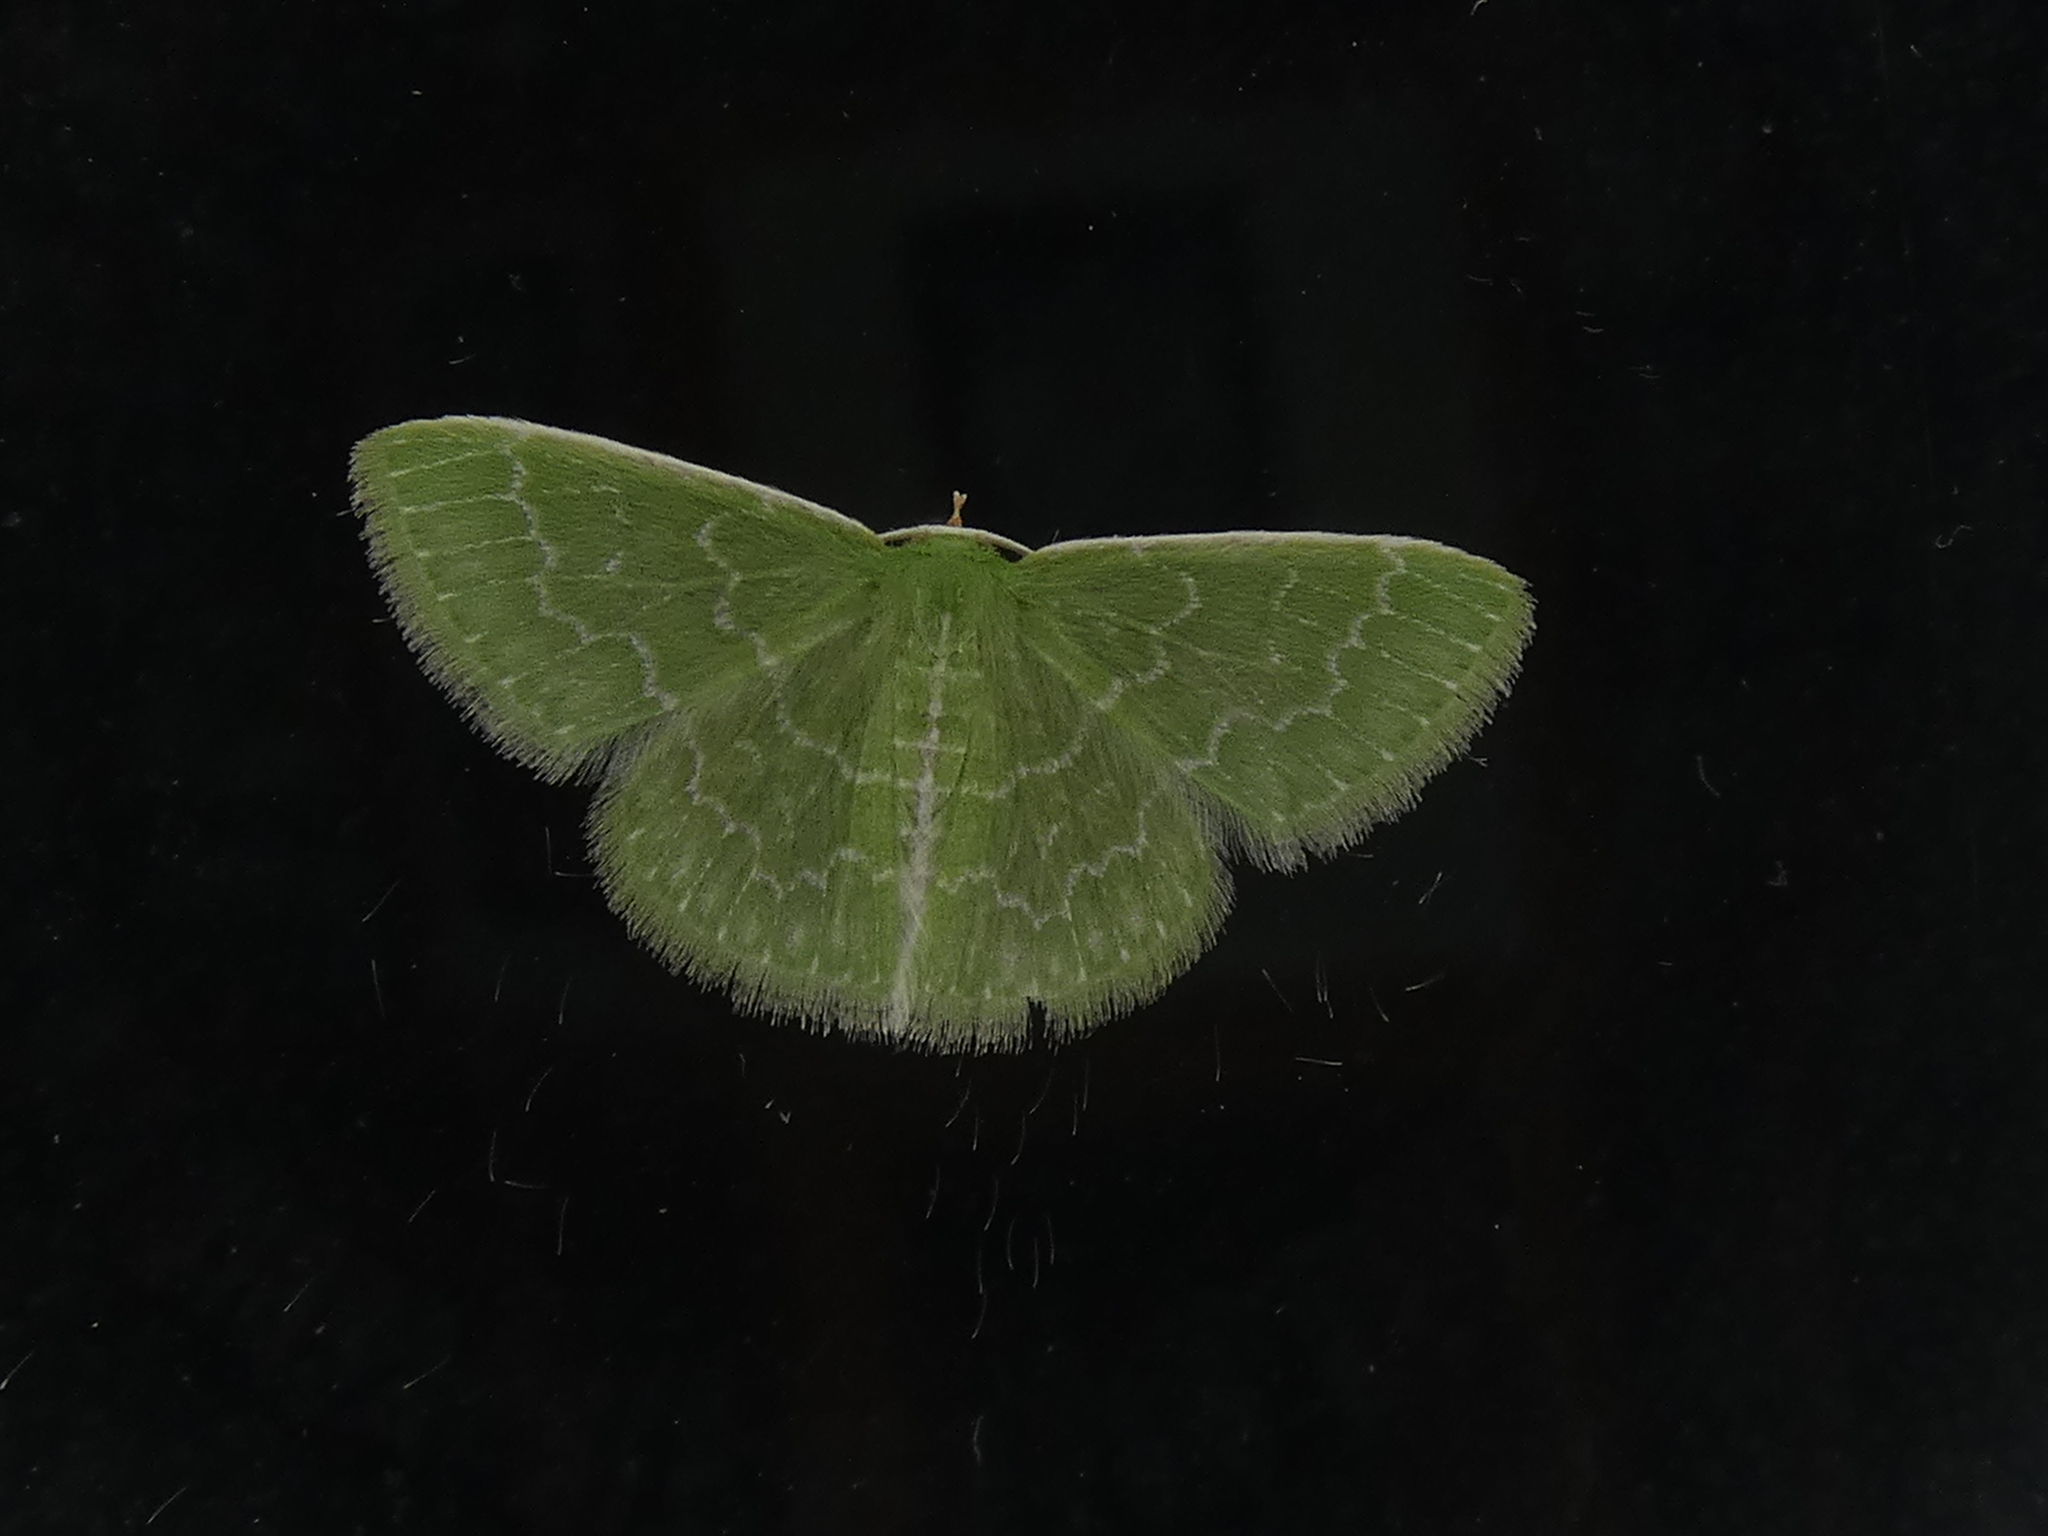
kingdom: Animalia
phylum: Arthropoda
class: Insecta
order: Lepidoptera
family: Geometridae
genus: Synchlora
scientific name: Synchlora frondaria
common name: Southern emerald
